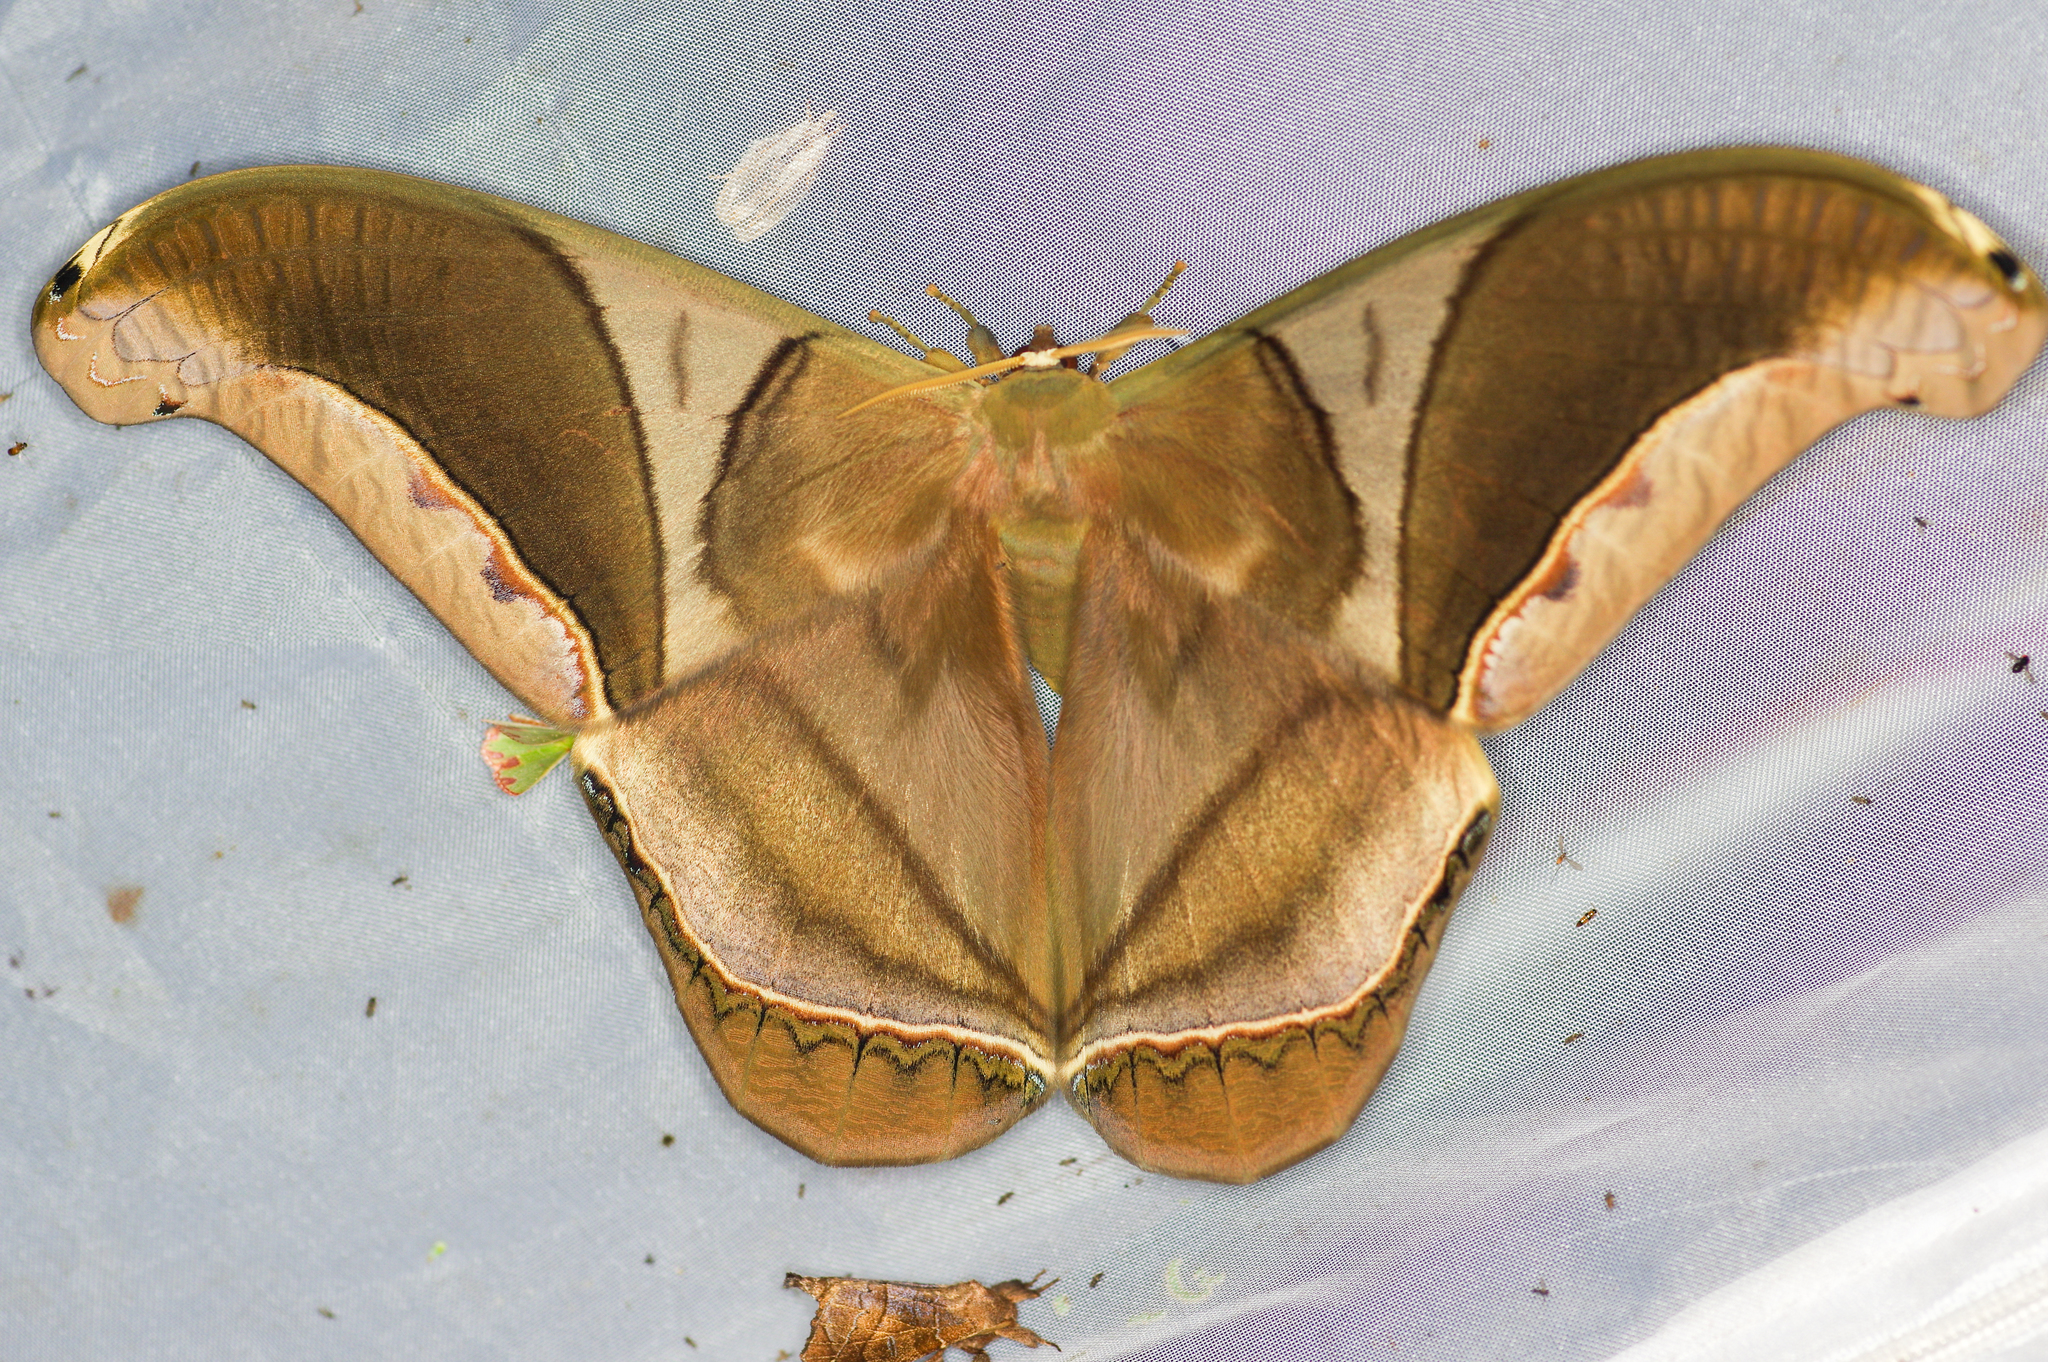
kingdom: Animalia
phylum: Arthropoda
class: Insecta
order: Lepidoptera
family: Saturniidae
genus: Rhescyntis
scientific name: Rhescyntis hippodamia
